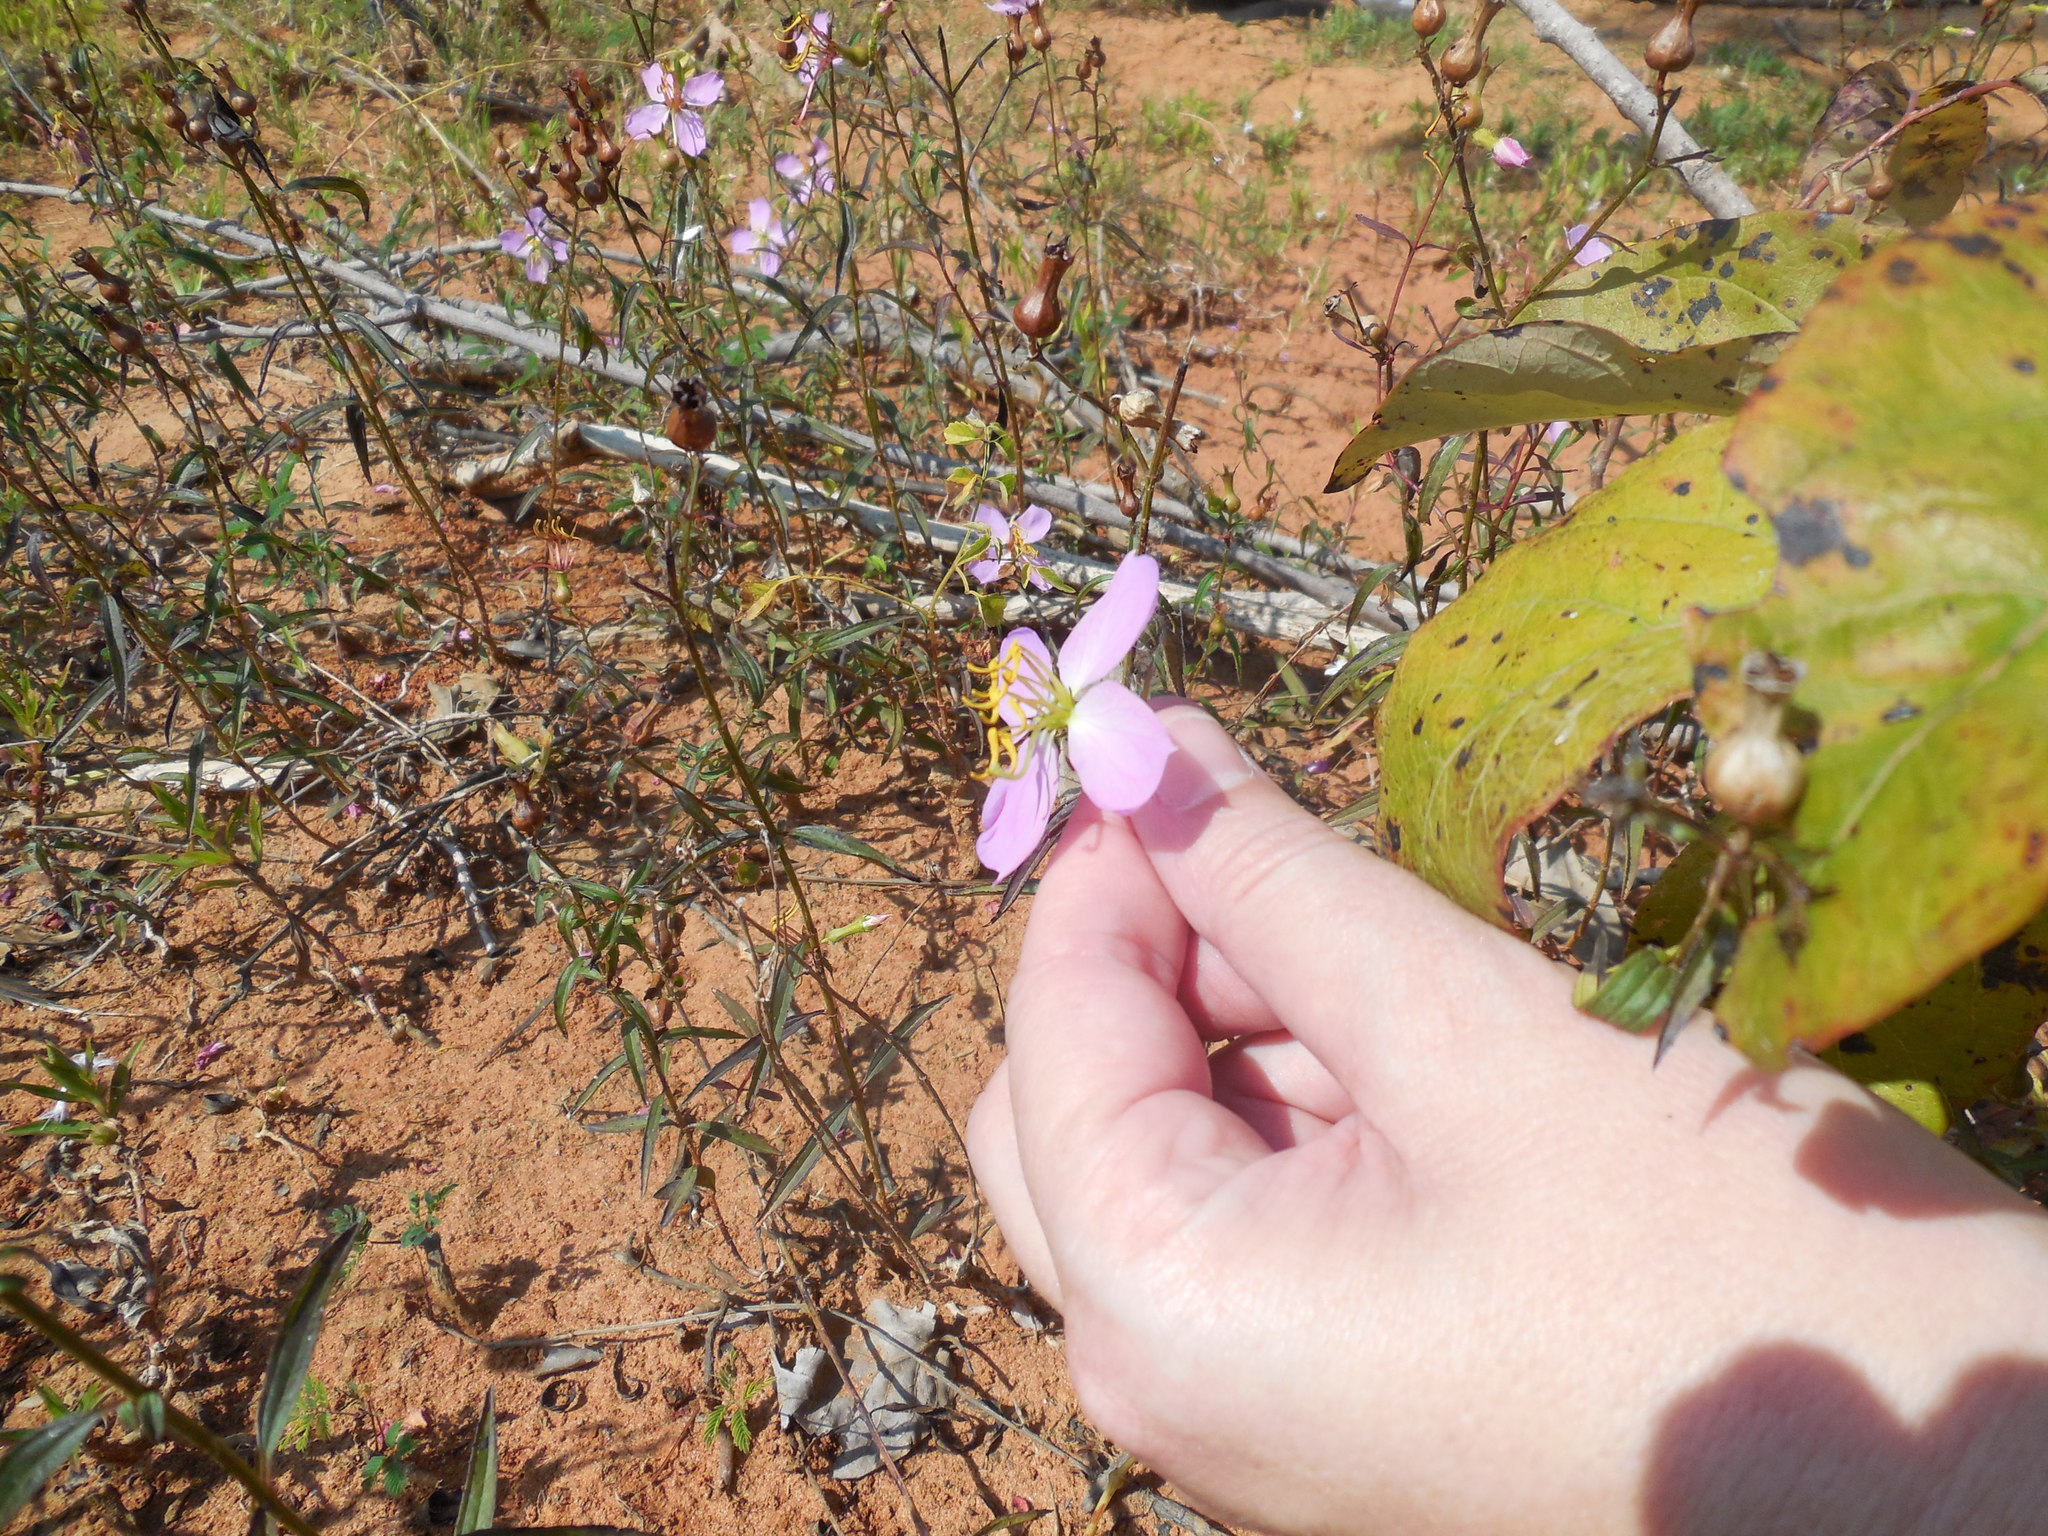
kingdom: Plantae
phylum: Tracheophyta
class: Magnoliopsida
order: Myrtales
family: Melastomataceae
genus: Rhexia
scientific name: Rhexia mariana
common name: Dull meadow-pitcher
